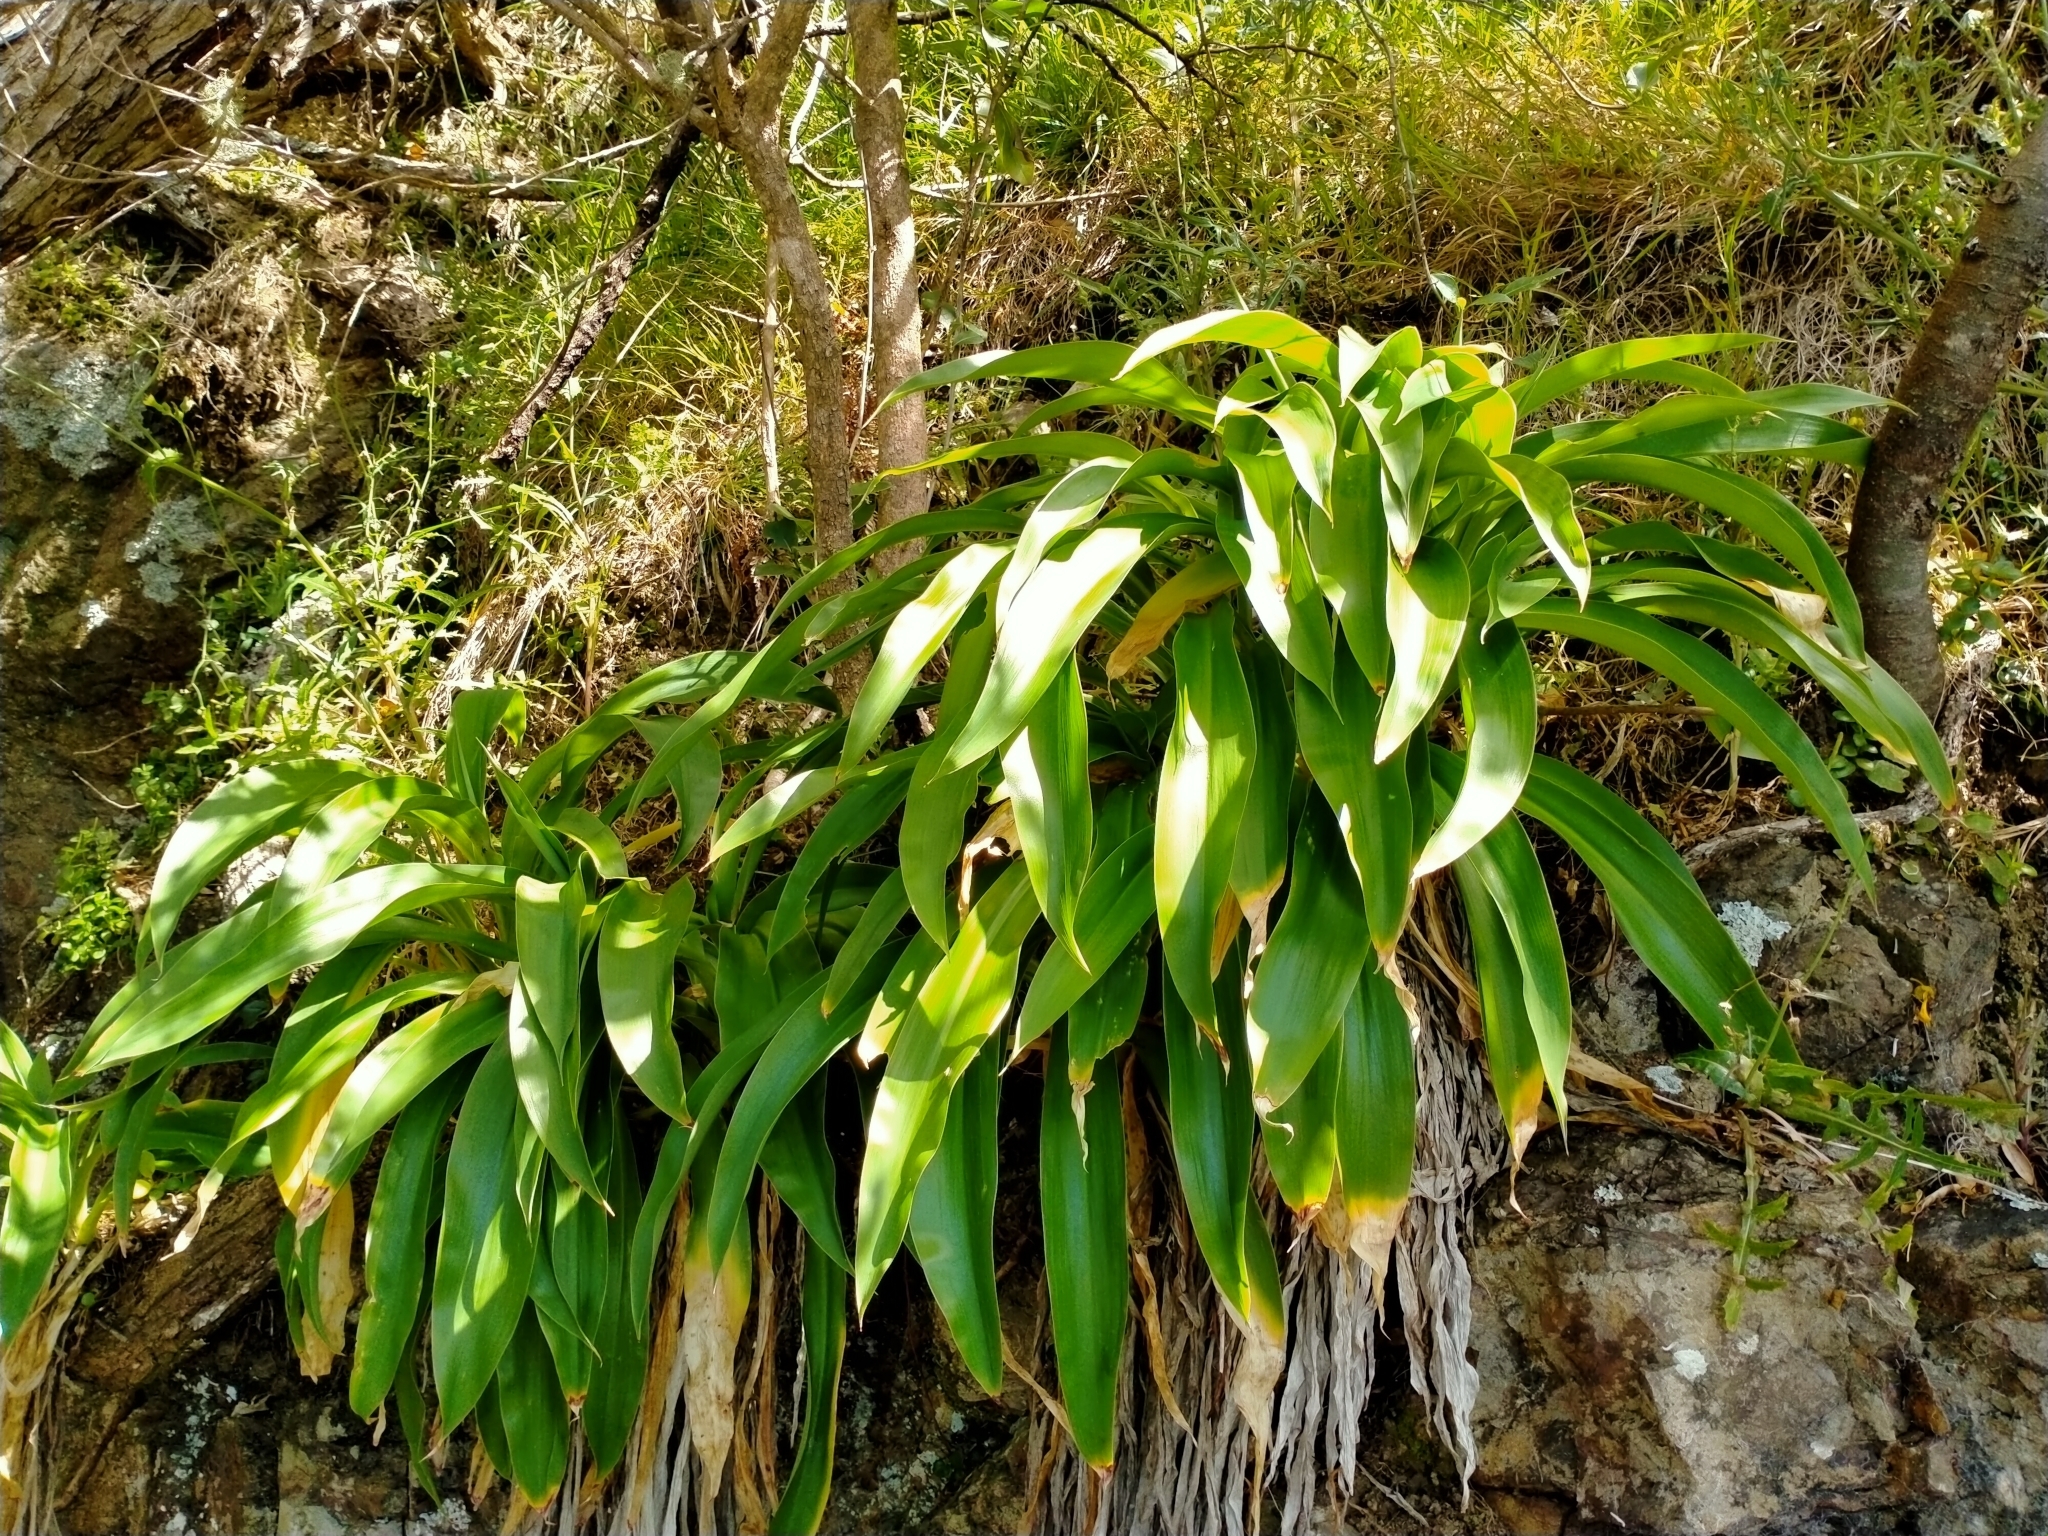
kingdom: Plantae
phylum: Tracheophyta
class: Liliopsida
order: Asparagales
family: Asparagaceae
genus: Arthropodium
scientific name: Arthropodium cirratum
